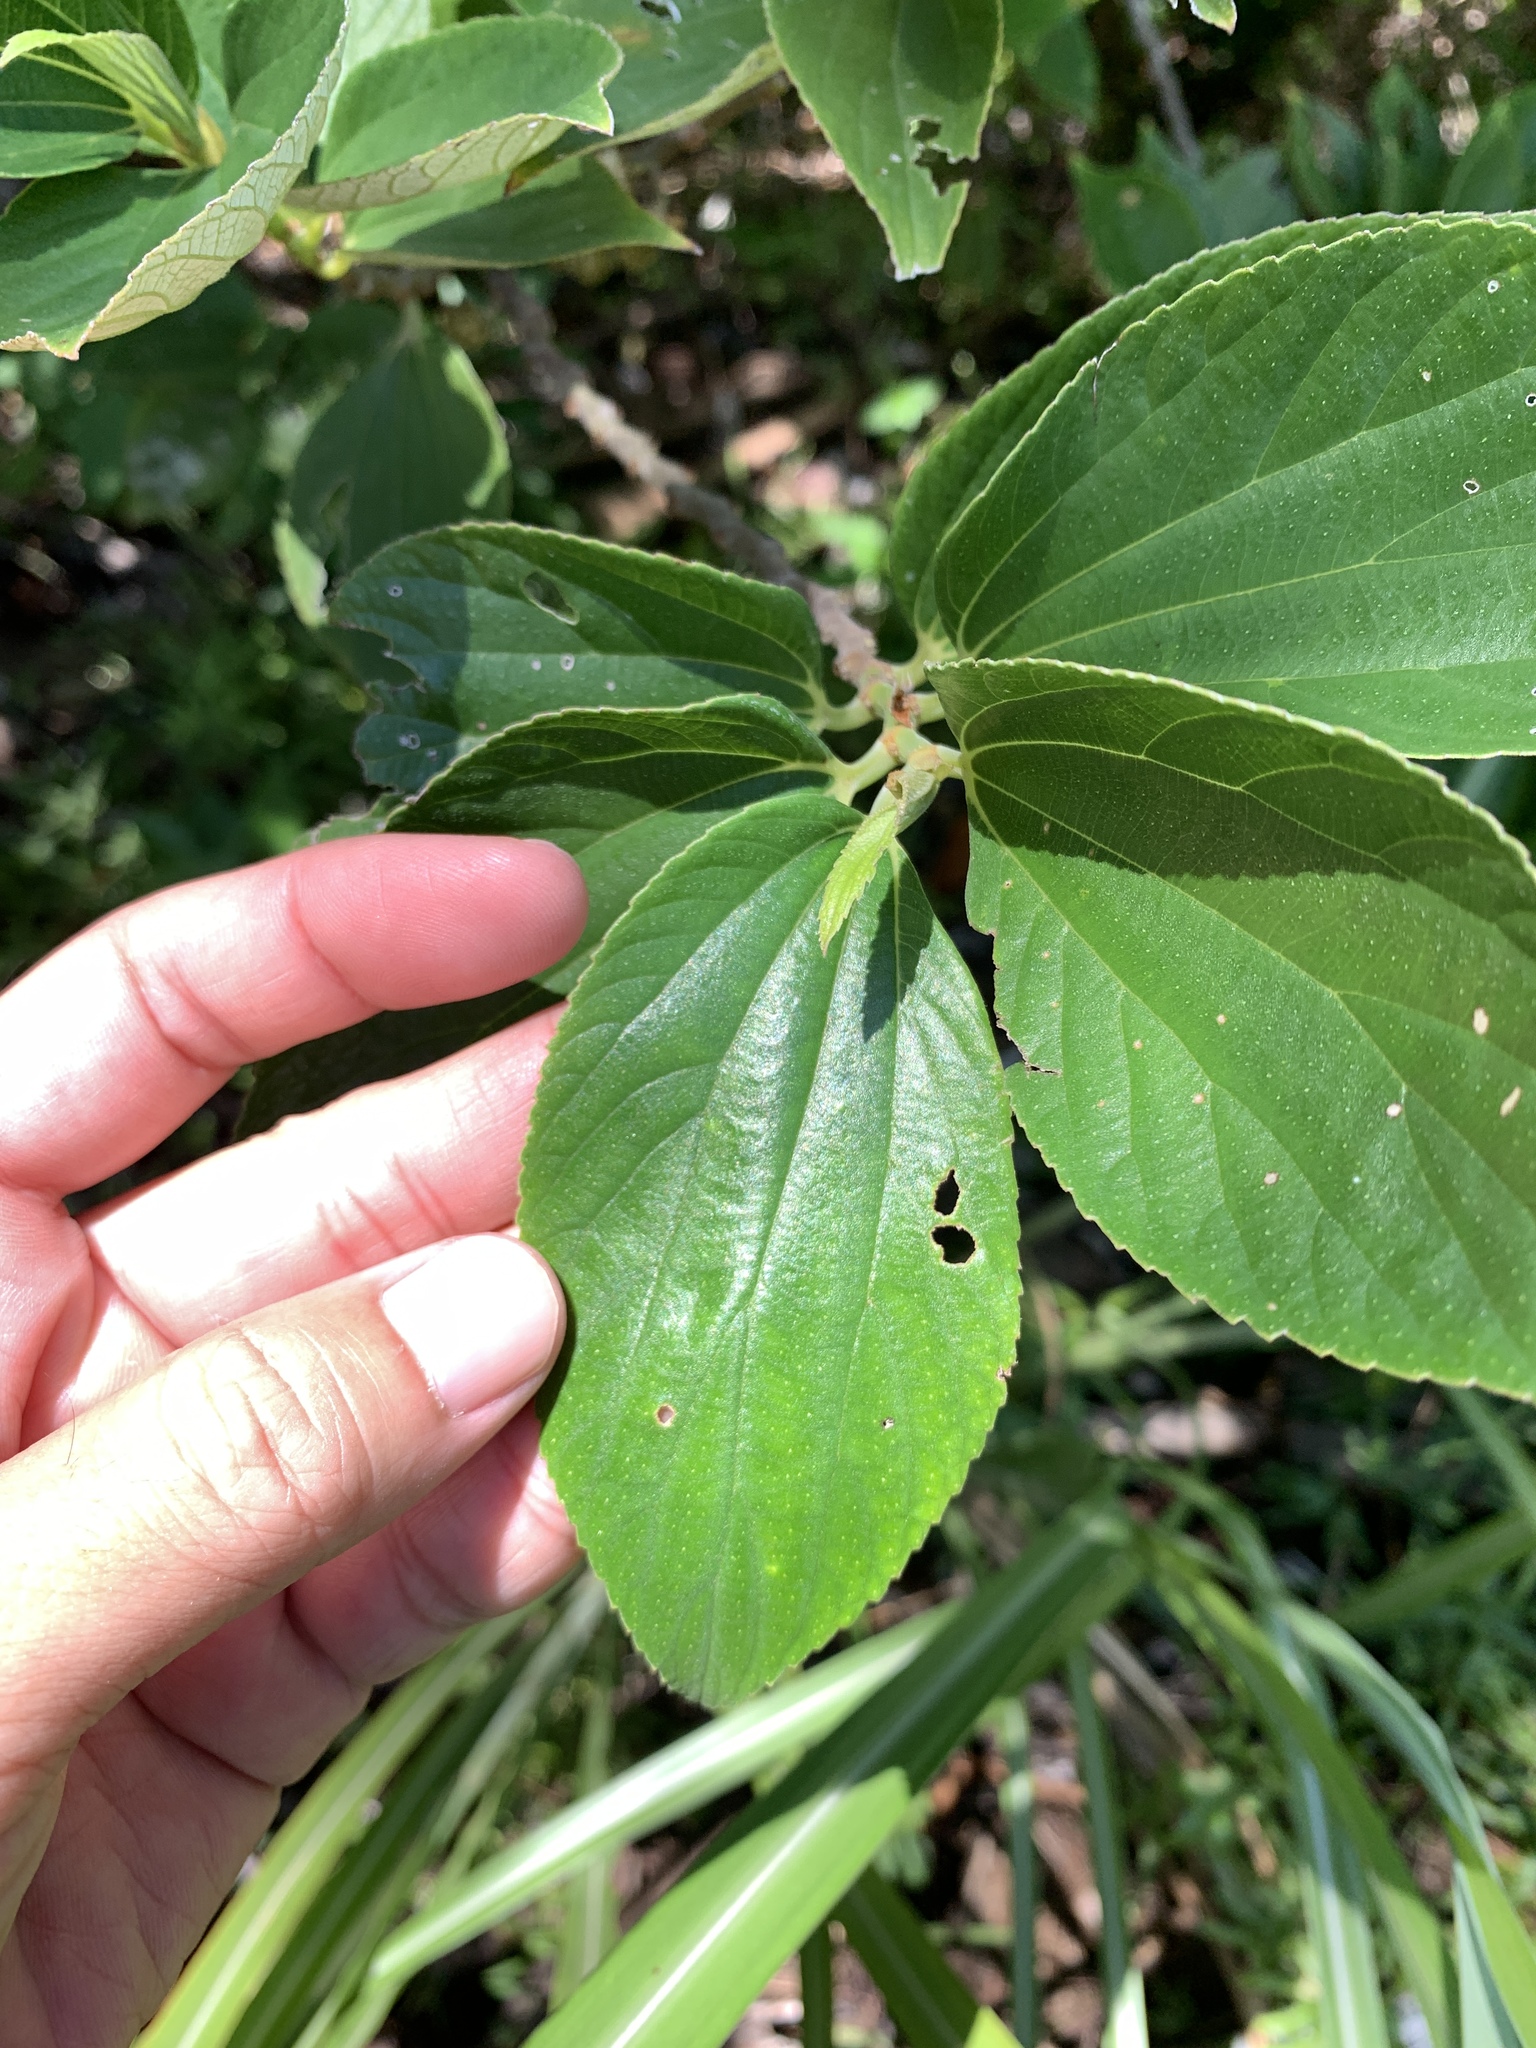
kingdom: Plantae
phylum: Tracheophyta
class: Magnoliopsida
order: Rosales
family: Urticaceae
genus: Leucosyke
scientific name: Leucosyke quadrinervia
